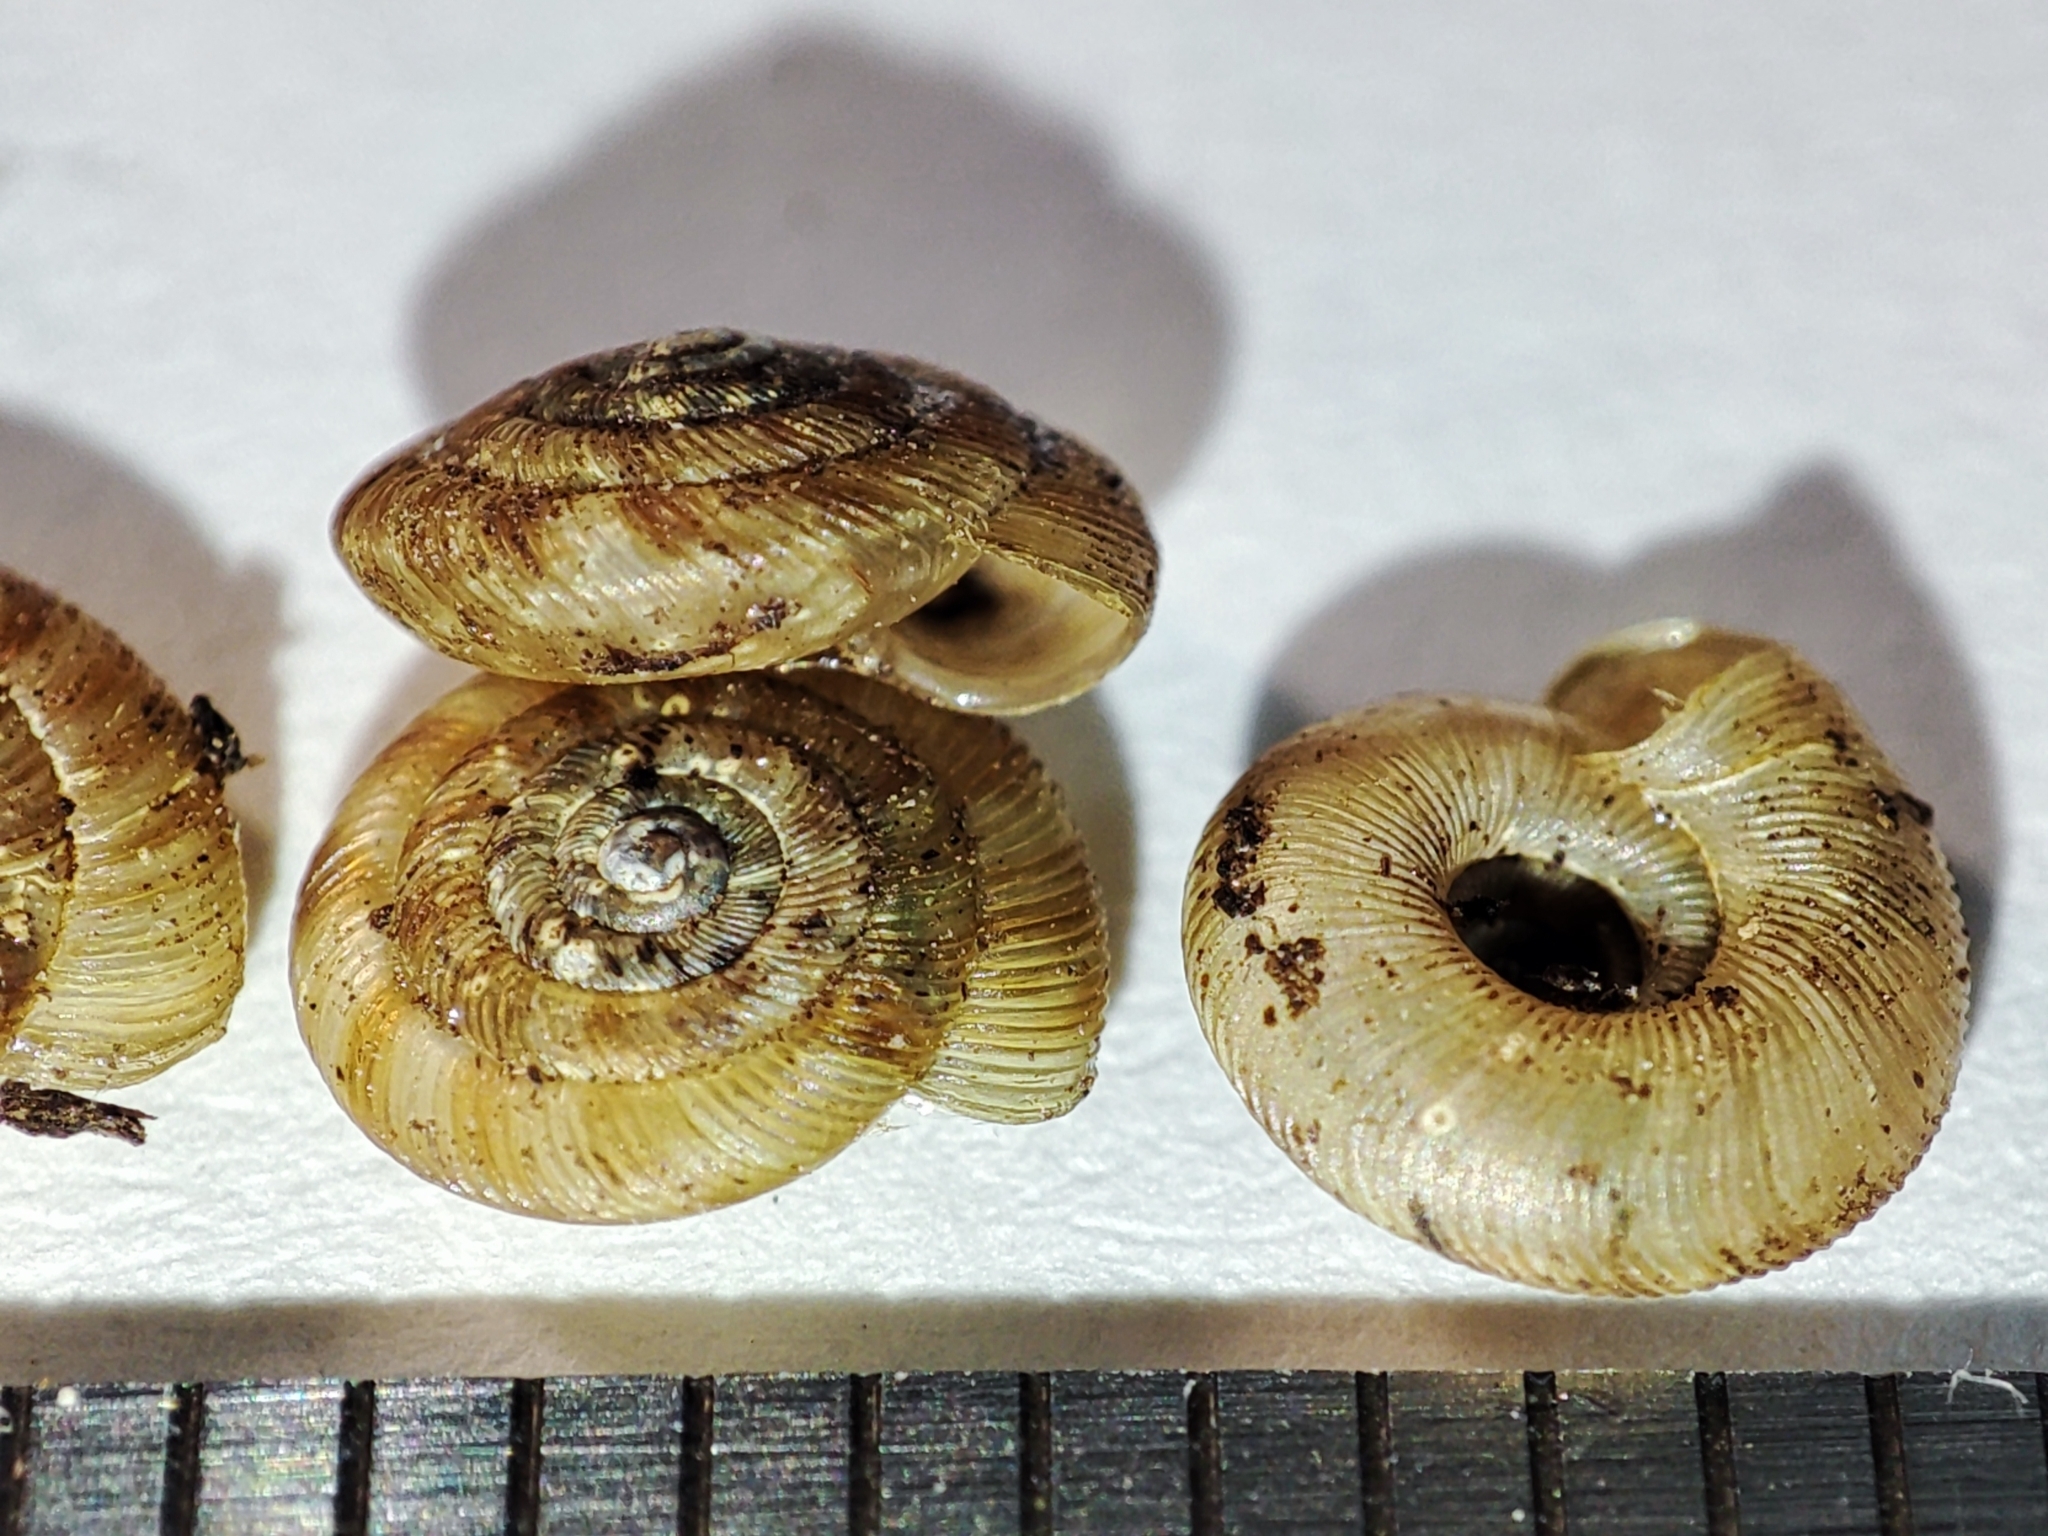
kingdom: Animalia
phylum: Mollusca
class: Gastropoda
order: Stylommatophora
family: Discidae
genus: Discus
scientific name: Discus rotundatus
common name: Rounded snail
